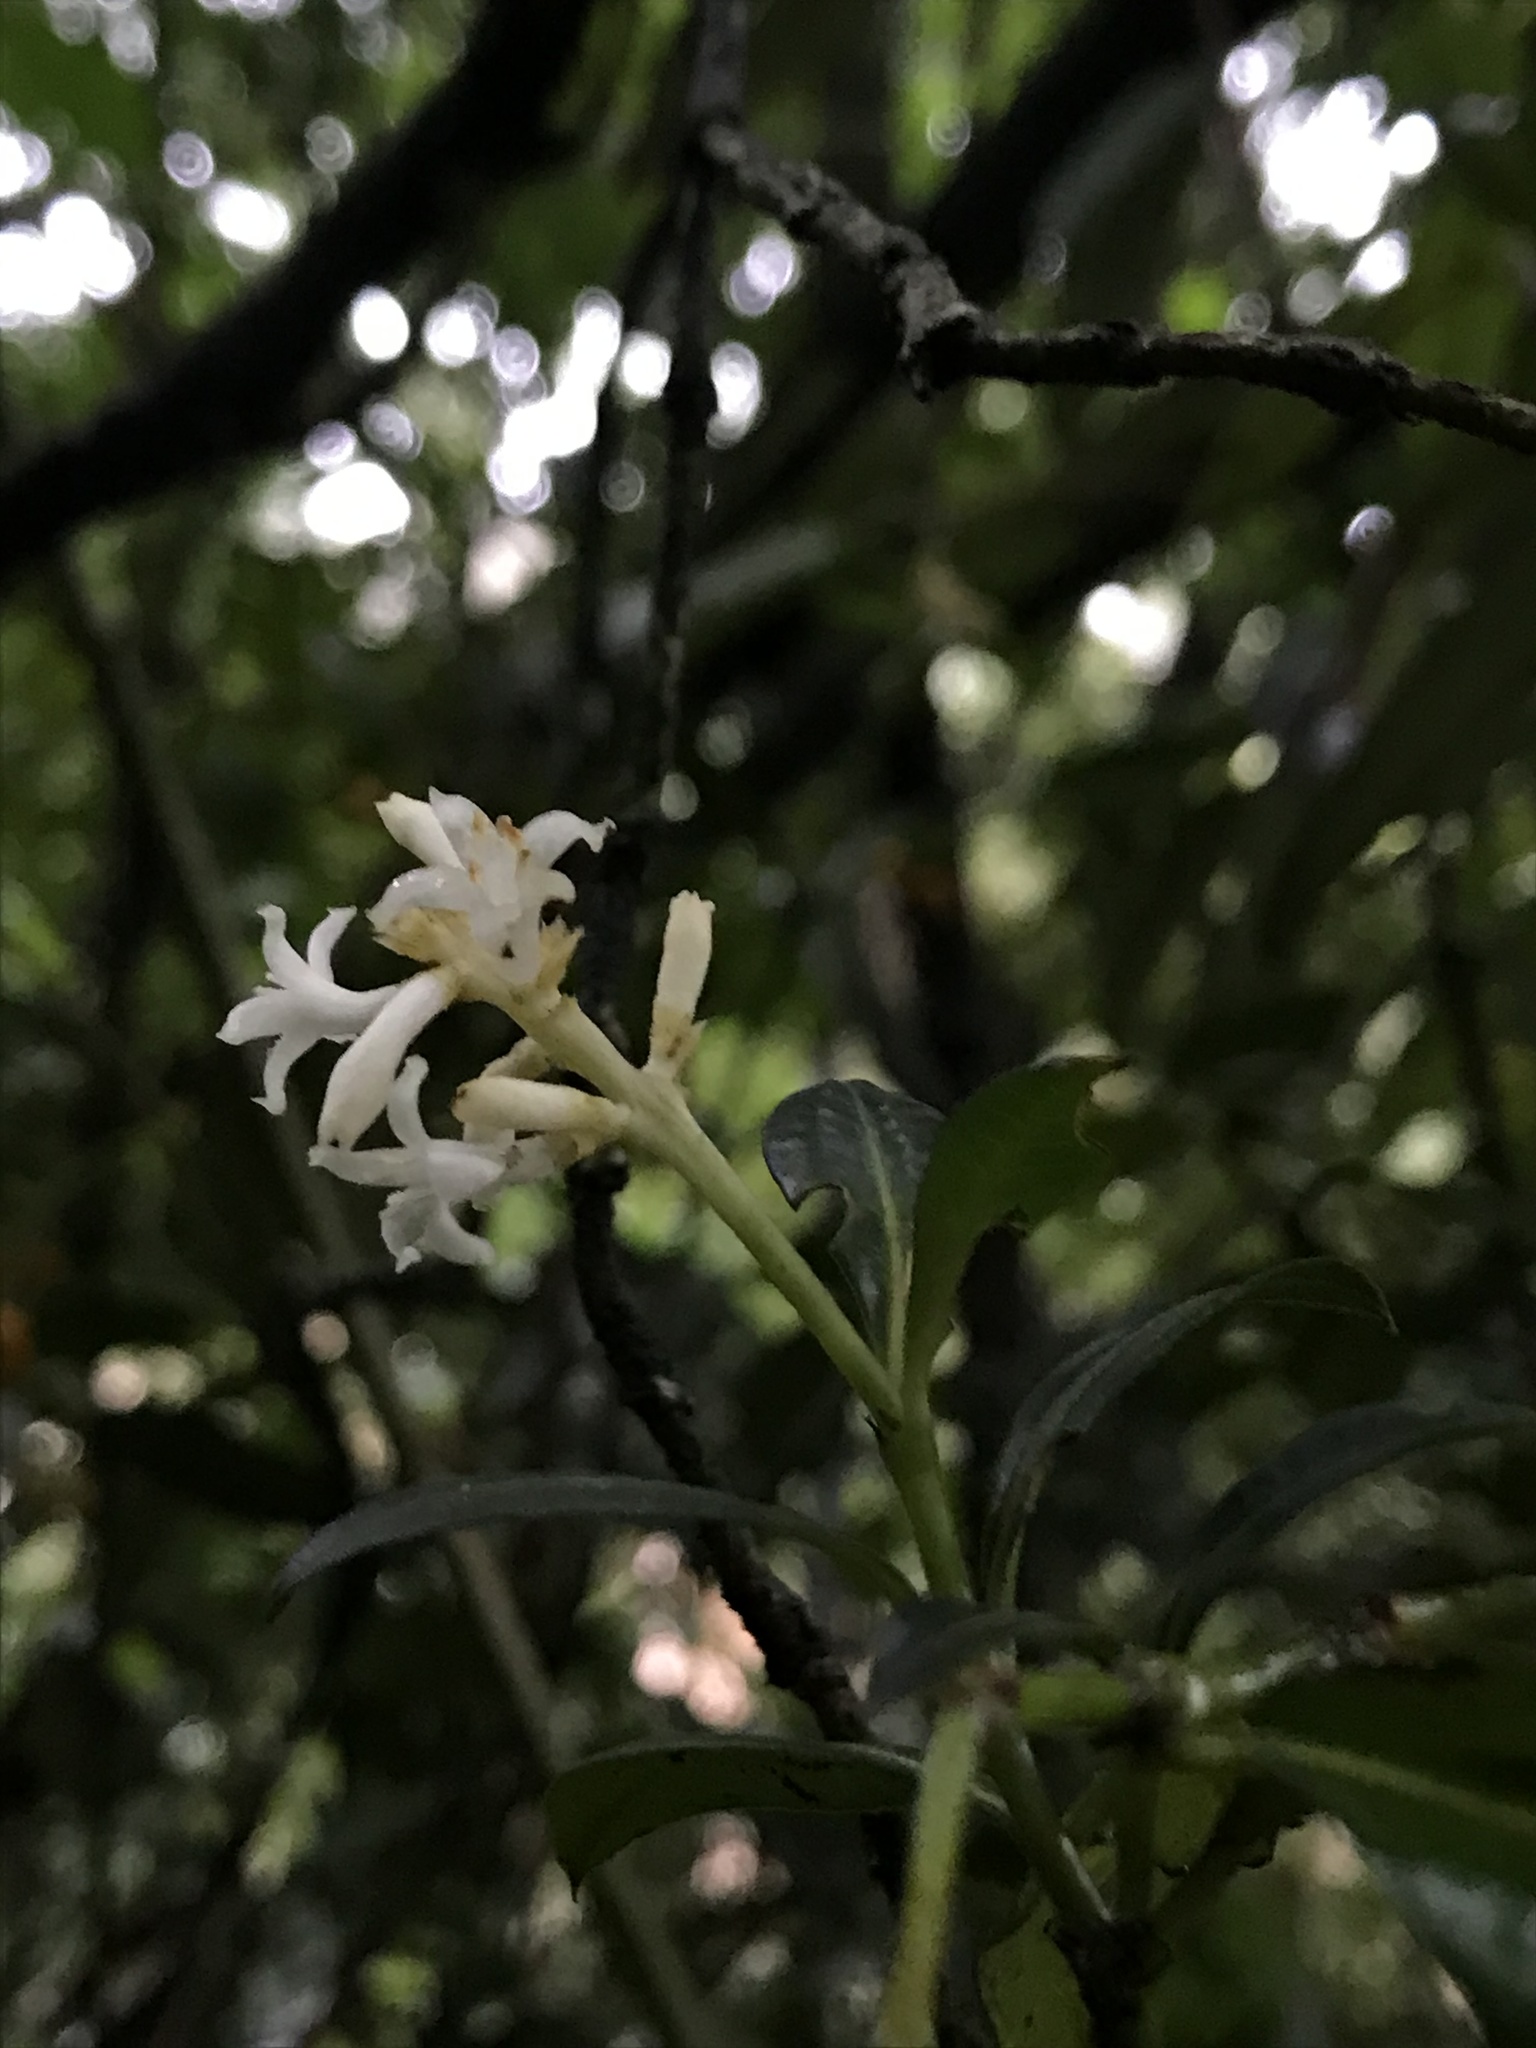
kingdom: Plantae
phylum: Tracheophyta
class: Magnoliopsida
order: Gentianales
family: Rubiaceae
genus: Palicourea
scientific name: Palicourea boqueronensis
